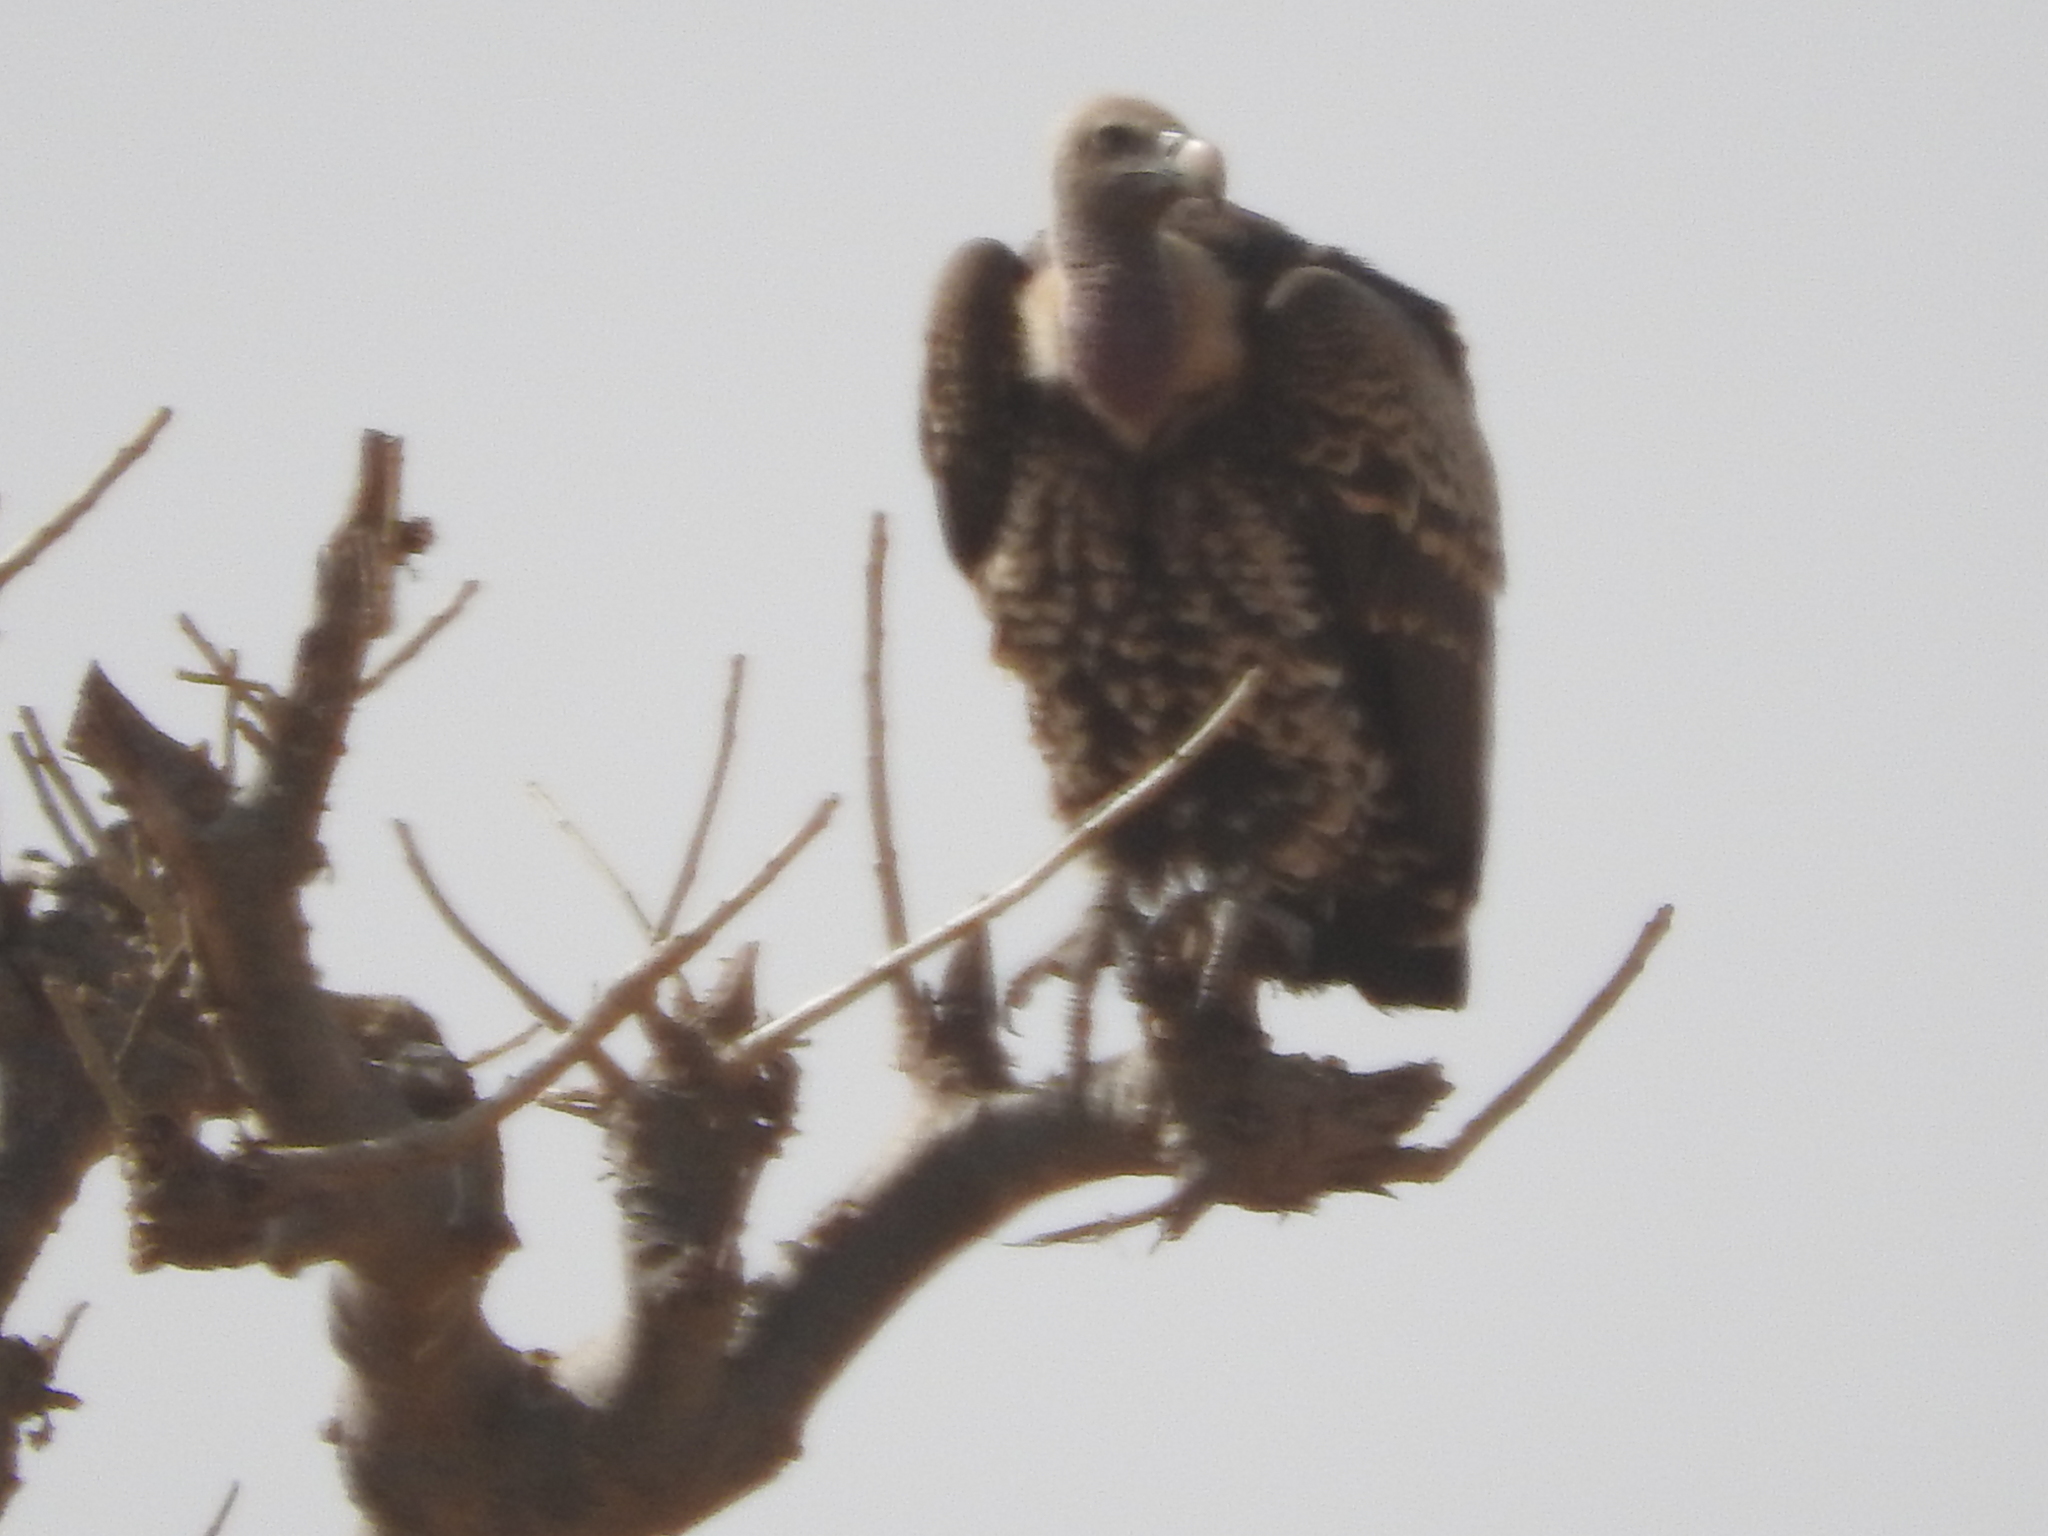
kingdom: Animalia
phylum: Chordata
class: Aves
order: Accipitriformes
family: Accipitridae
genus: Gyps
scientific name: Gyps rueppellii
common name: Rüppell's vulture
